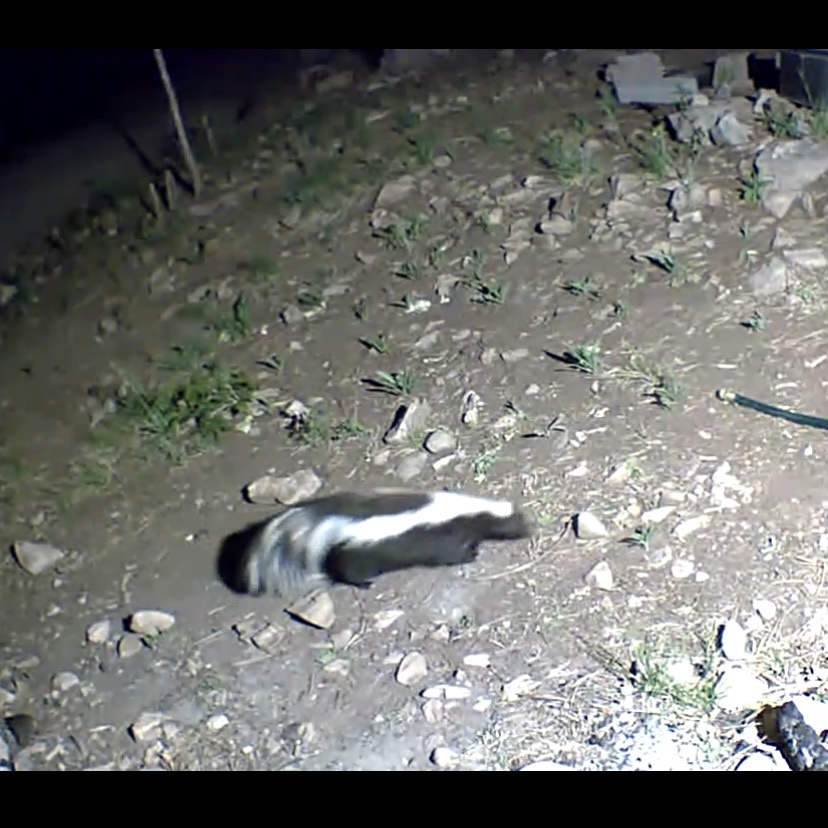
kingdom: Animalia
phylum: Chordata
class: Mammalia
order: Carnivora
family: Mephitidae
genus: Mephitis
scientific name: Mephitis mephitis
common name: Striped skunk
